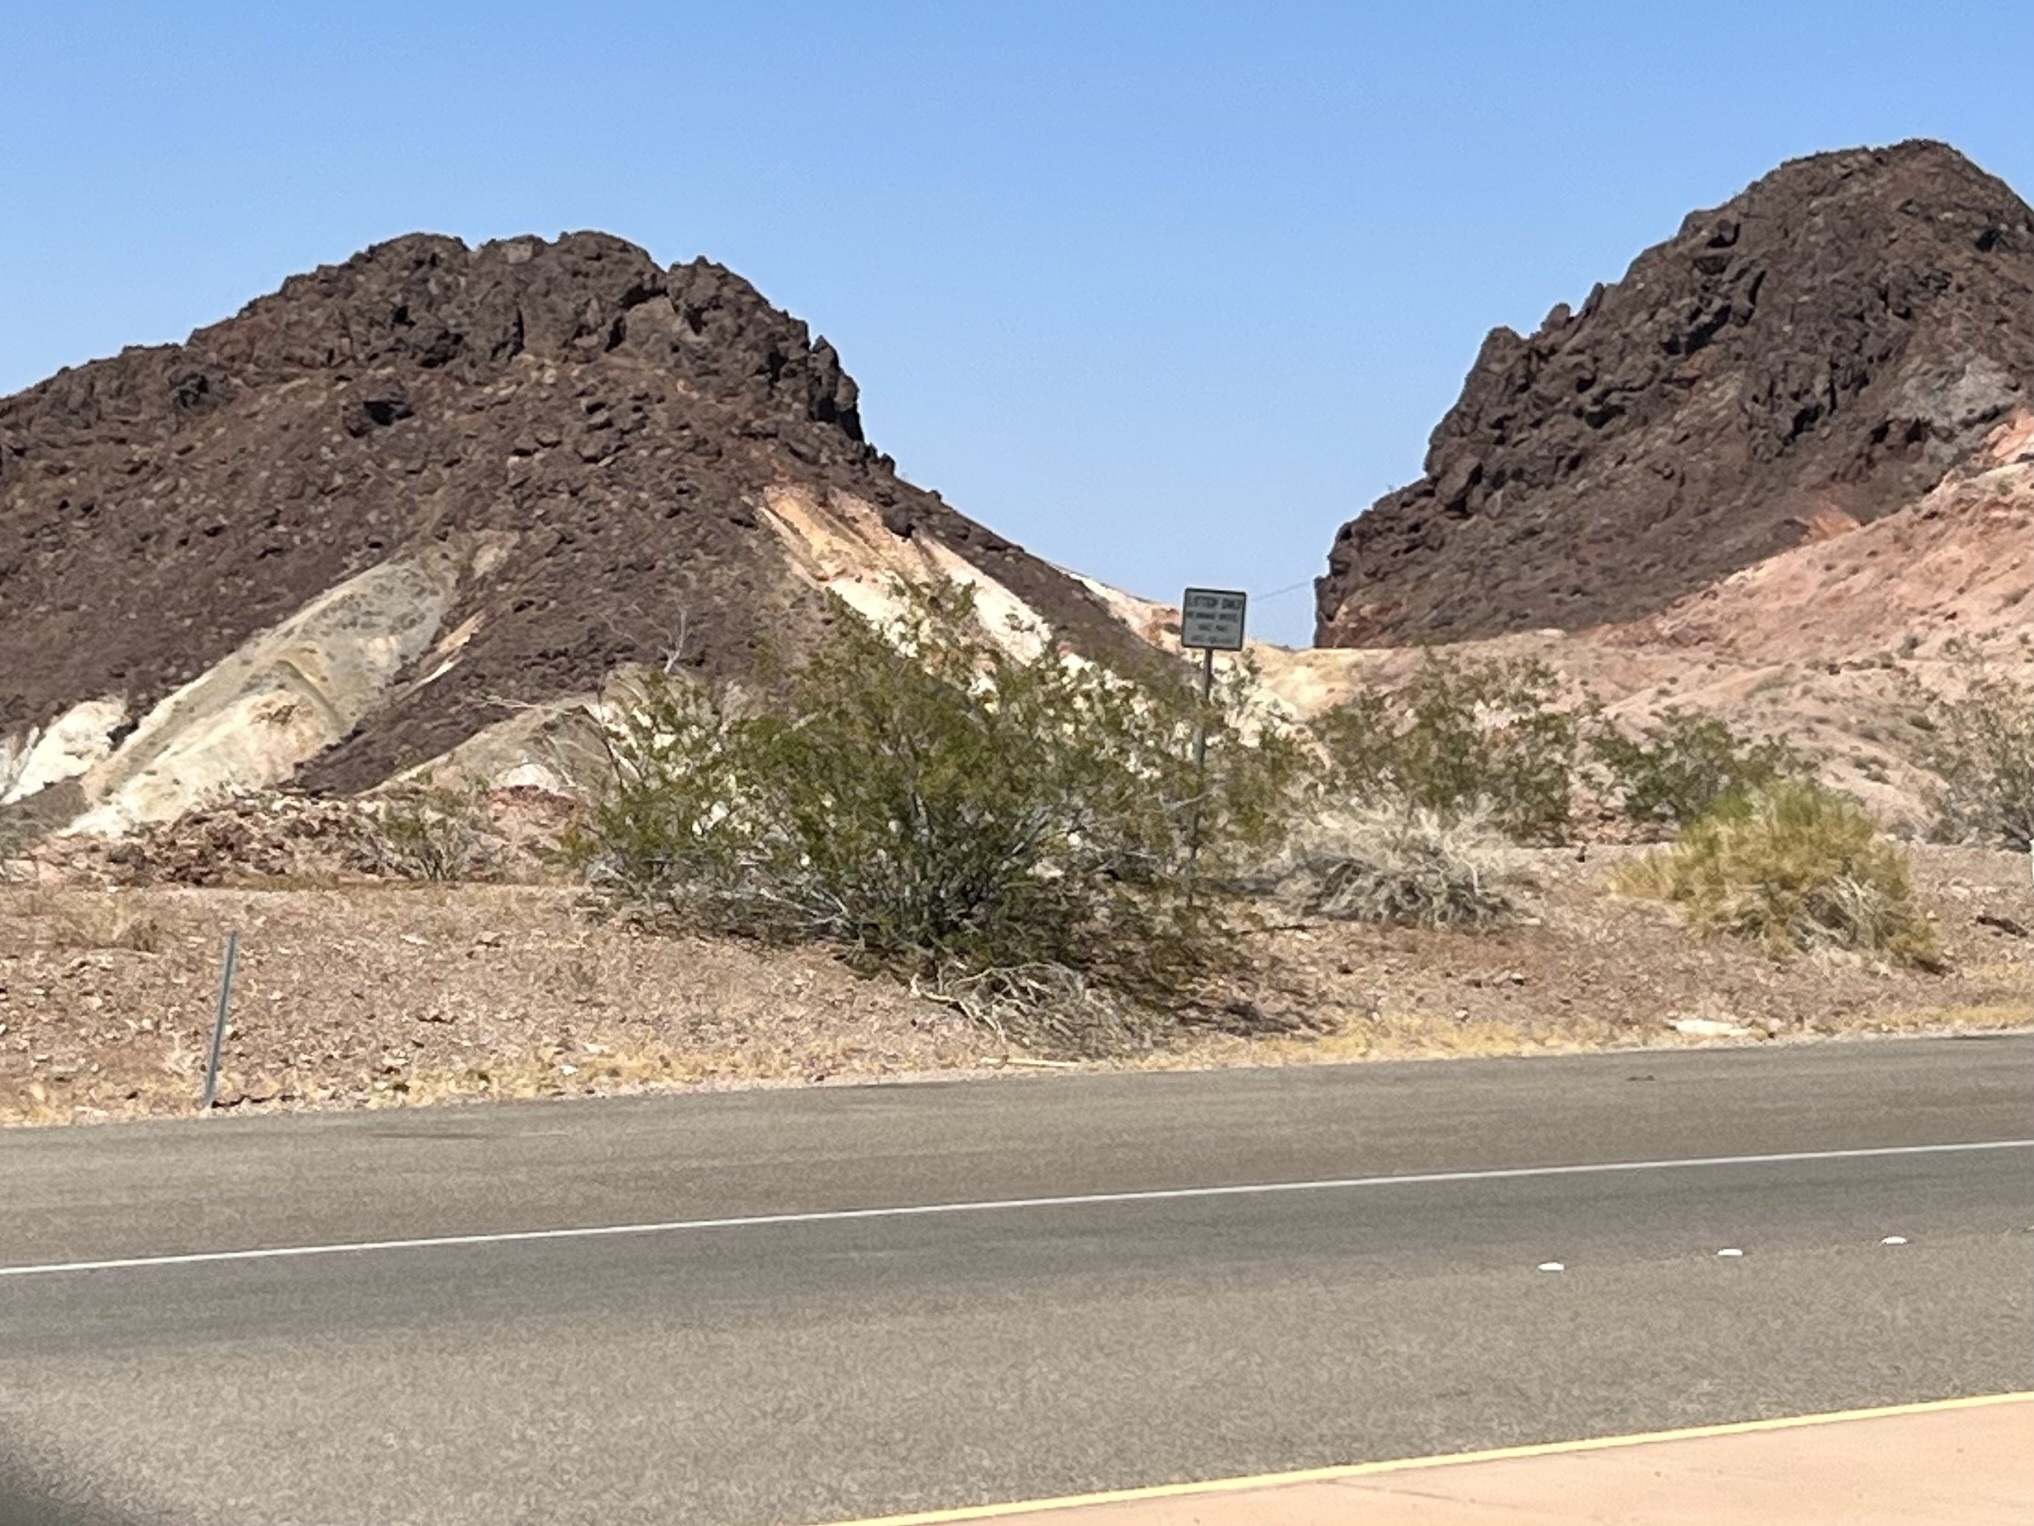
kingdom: Plantae
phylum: Tracheophyta
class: Magnoliopsida
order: Zygophyllales
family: Zygophyllaceae
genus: Larrea
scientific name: Larrea tridentata
